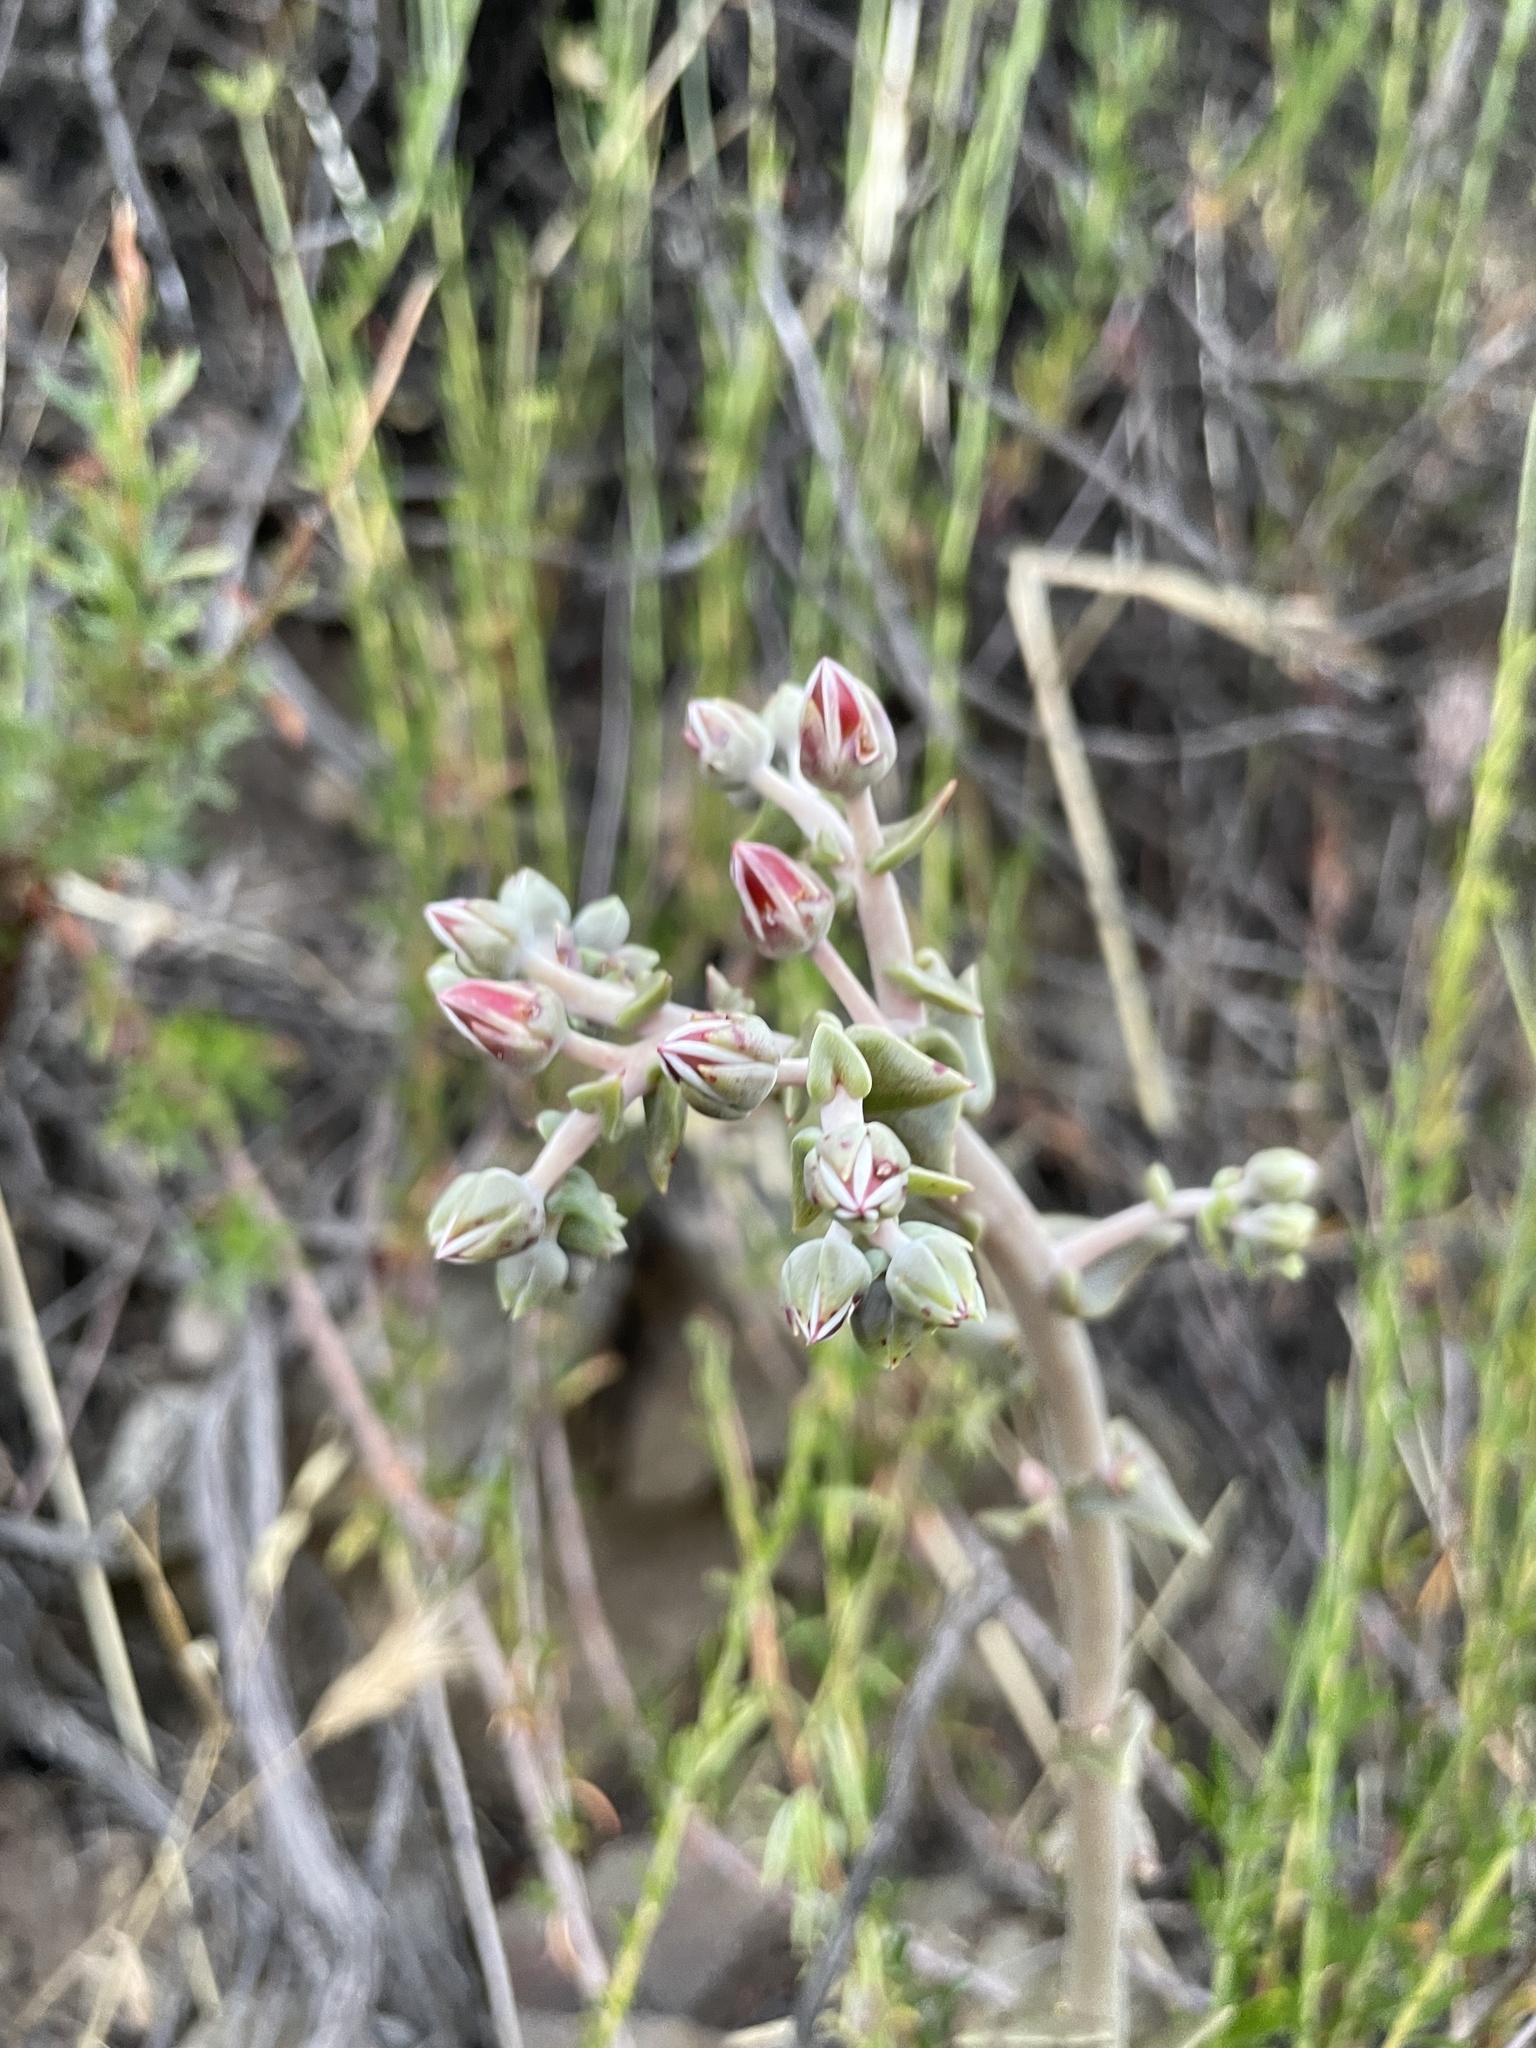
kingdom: Plantae
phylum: Tracheophyta
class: Magnoliopsida
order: Saxifragales
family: Crassulaceae
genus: Dudleya
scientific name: Dudleya lanceolata
